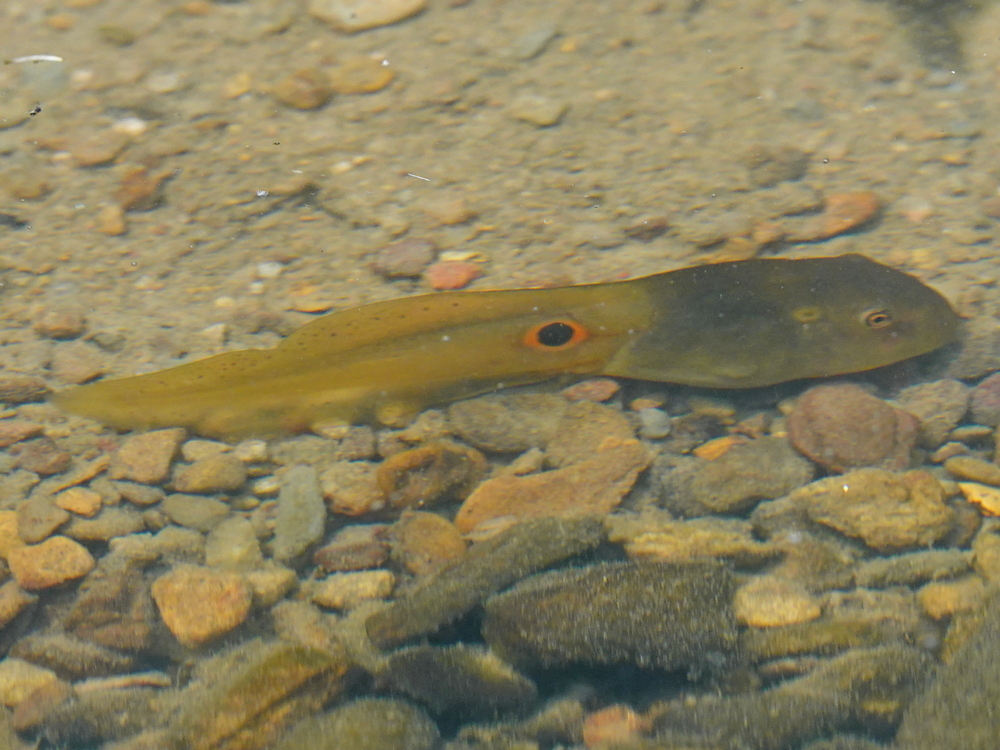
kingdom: Animalia
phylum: Chordata
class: Amphibia
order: Anura
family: Ranidae
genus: Clinotarsus
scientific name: Clinotarsus alticola
